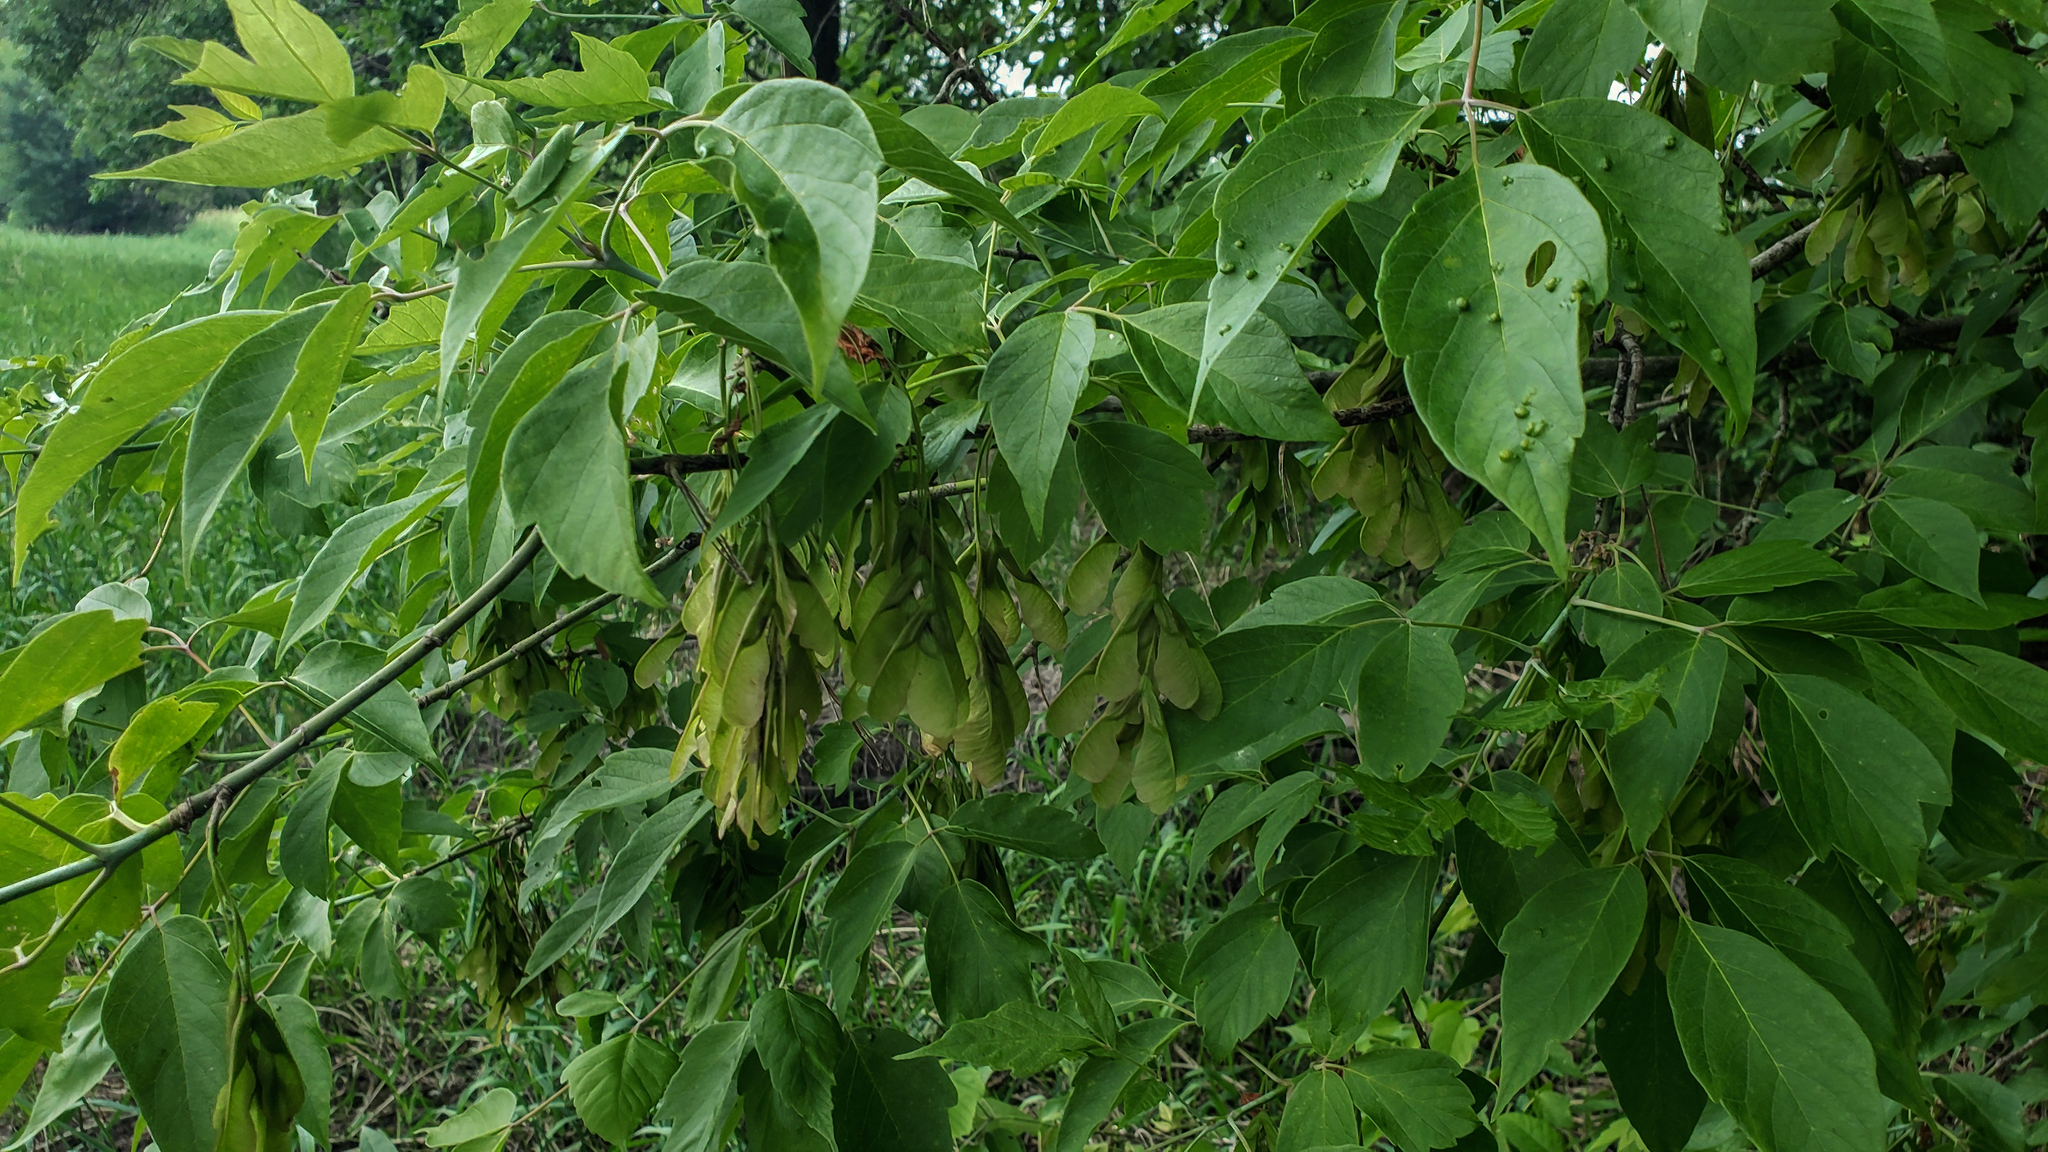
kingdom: Plantae
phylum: Tracheophyta
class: Magnoliopsida
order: Sapindales
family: Sapindaceae
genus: Acer
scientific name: Acer negundo
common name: Ashleaf maple
